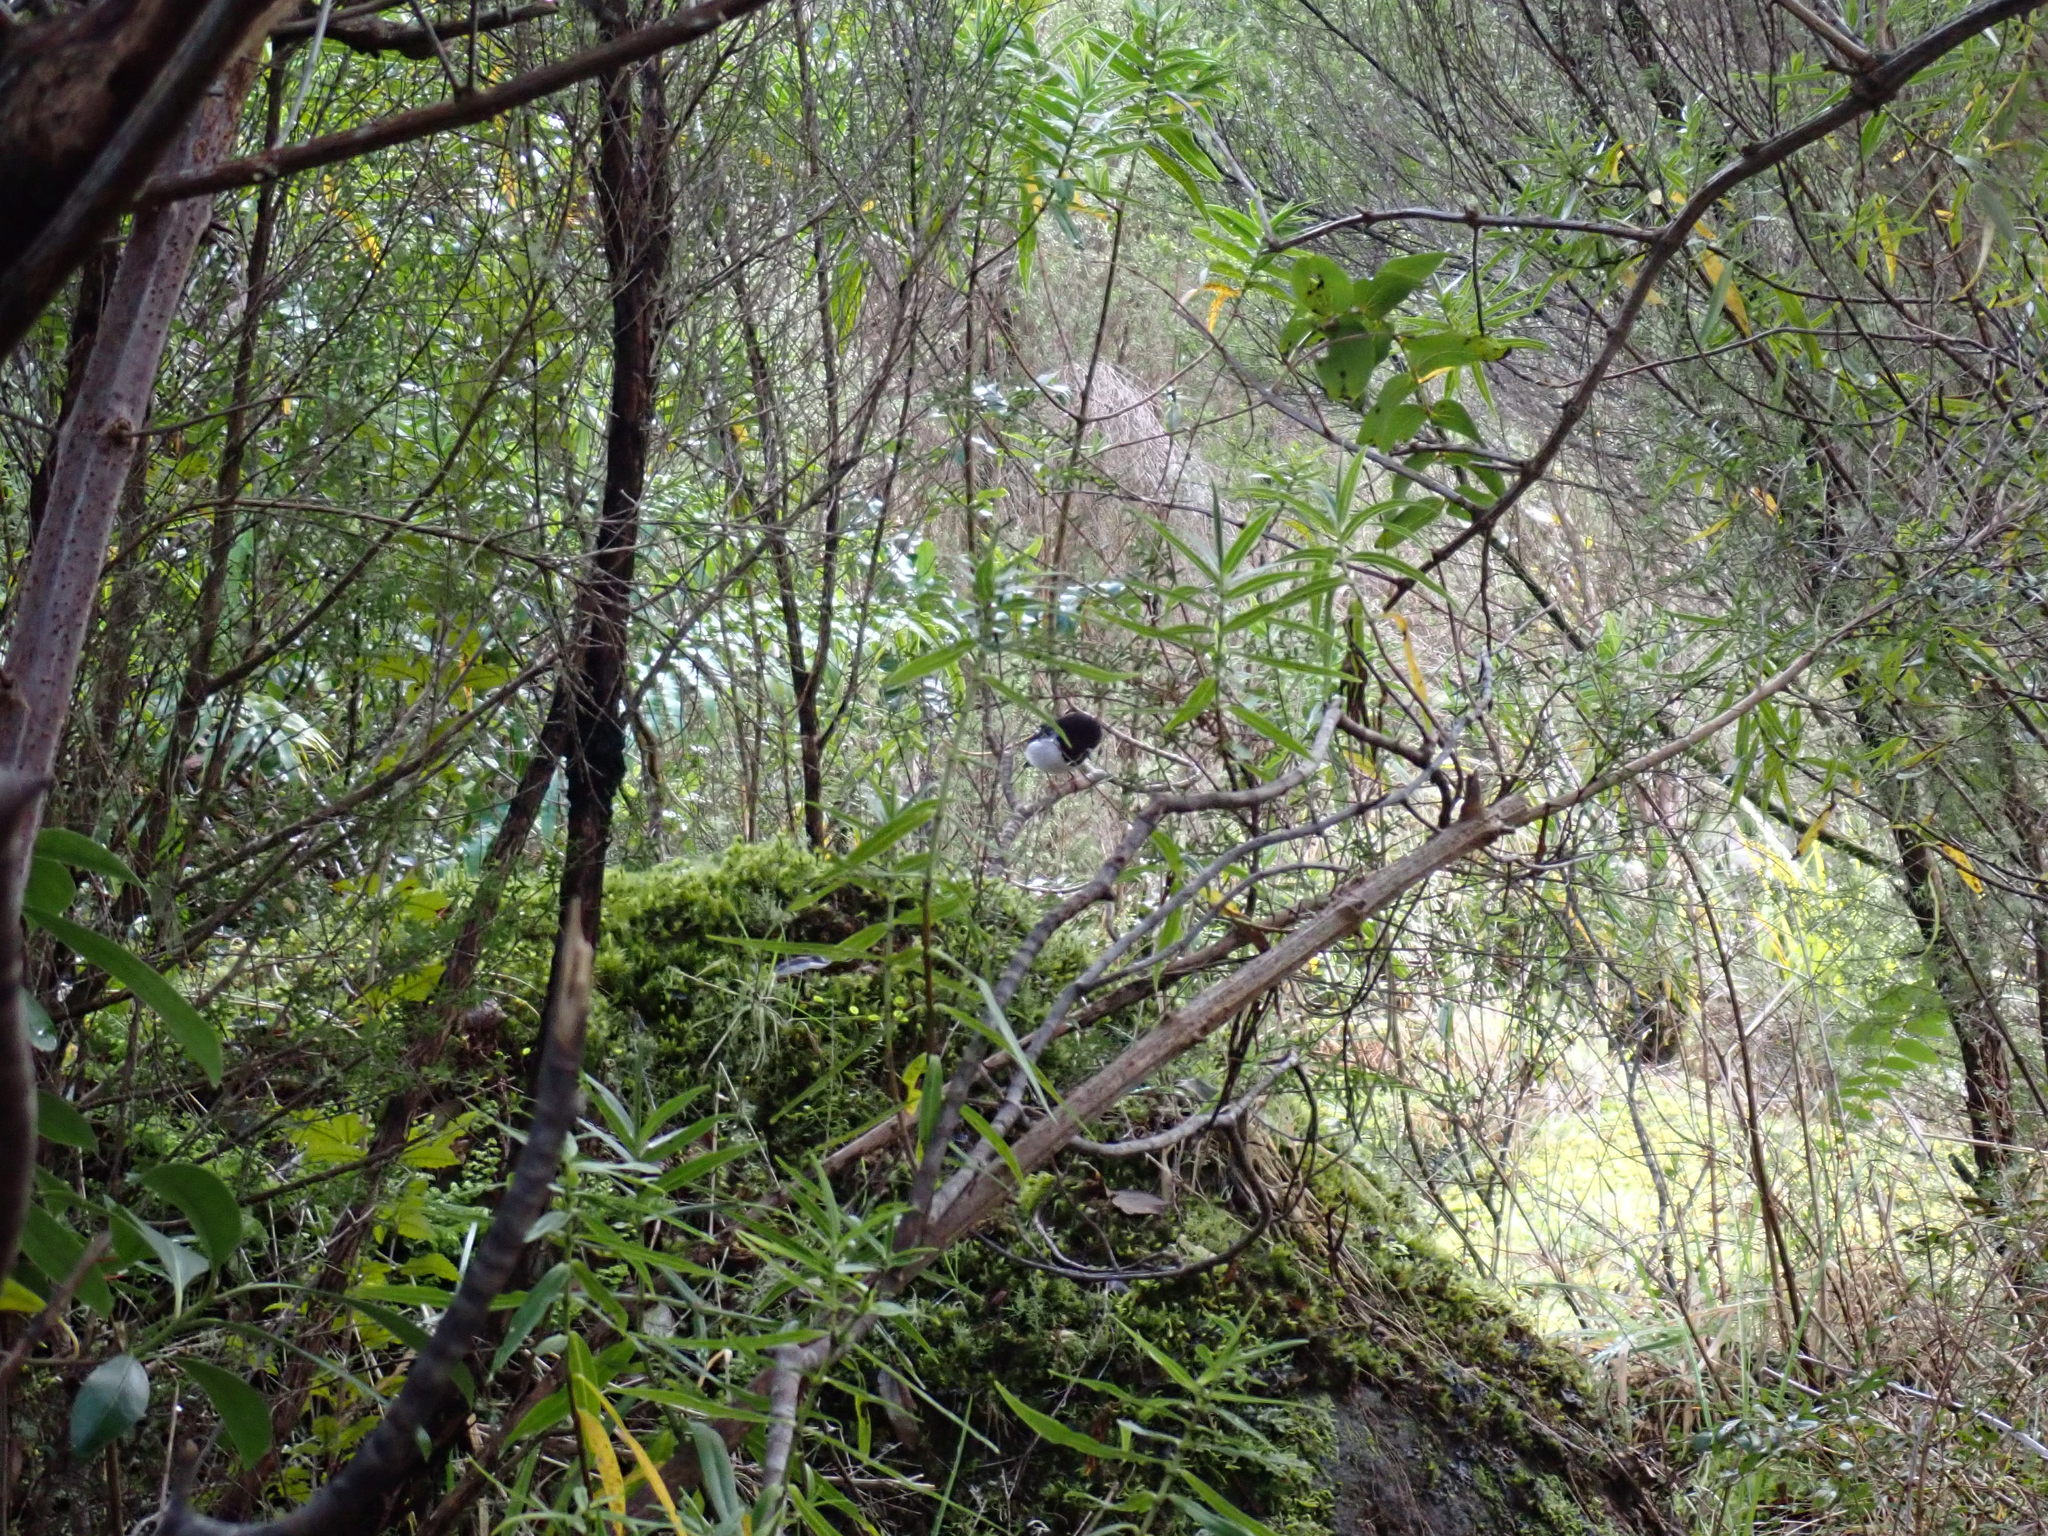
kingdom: Animalia
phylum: Chordata
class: Aves
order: Passeriformes
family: Petroicidae
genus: Petroica
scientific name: Petroica macrocephala
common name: Tomtit
